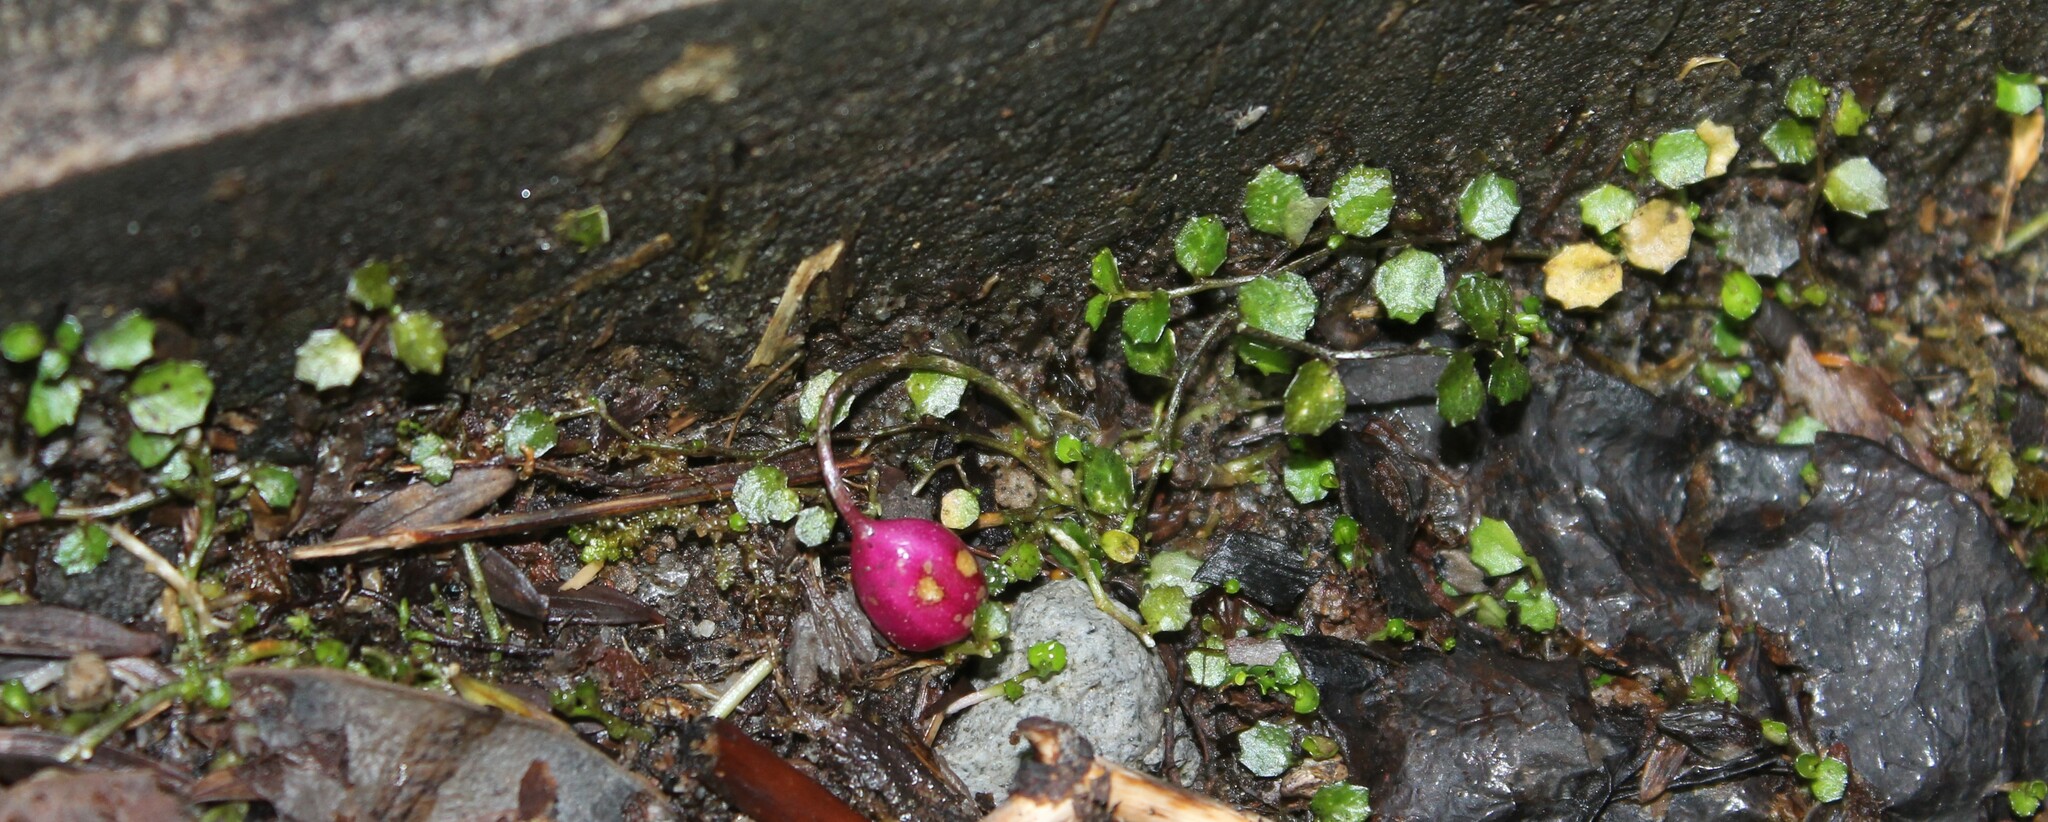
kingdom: Plantae
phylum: Tracheophyta
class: Magnoliopsida
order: Asterales
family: Campanulaceae
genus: Lobelia
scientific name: Lobelia angulata
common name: Lawn lobelia
